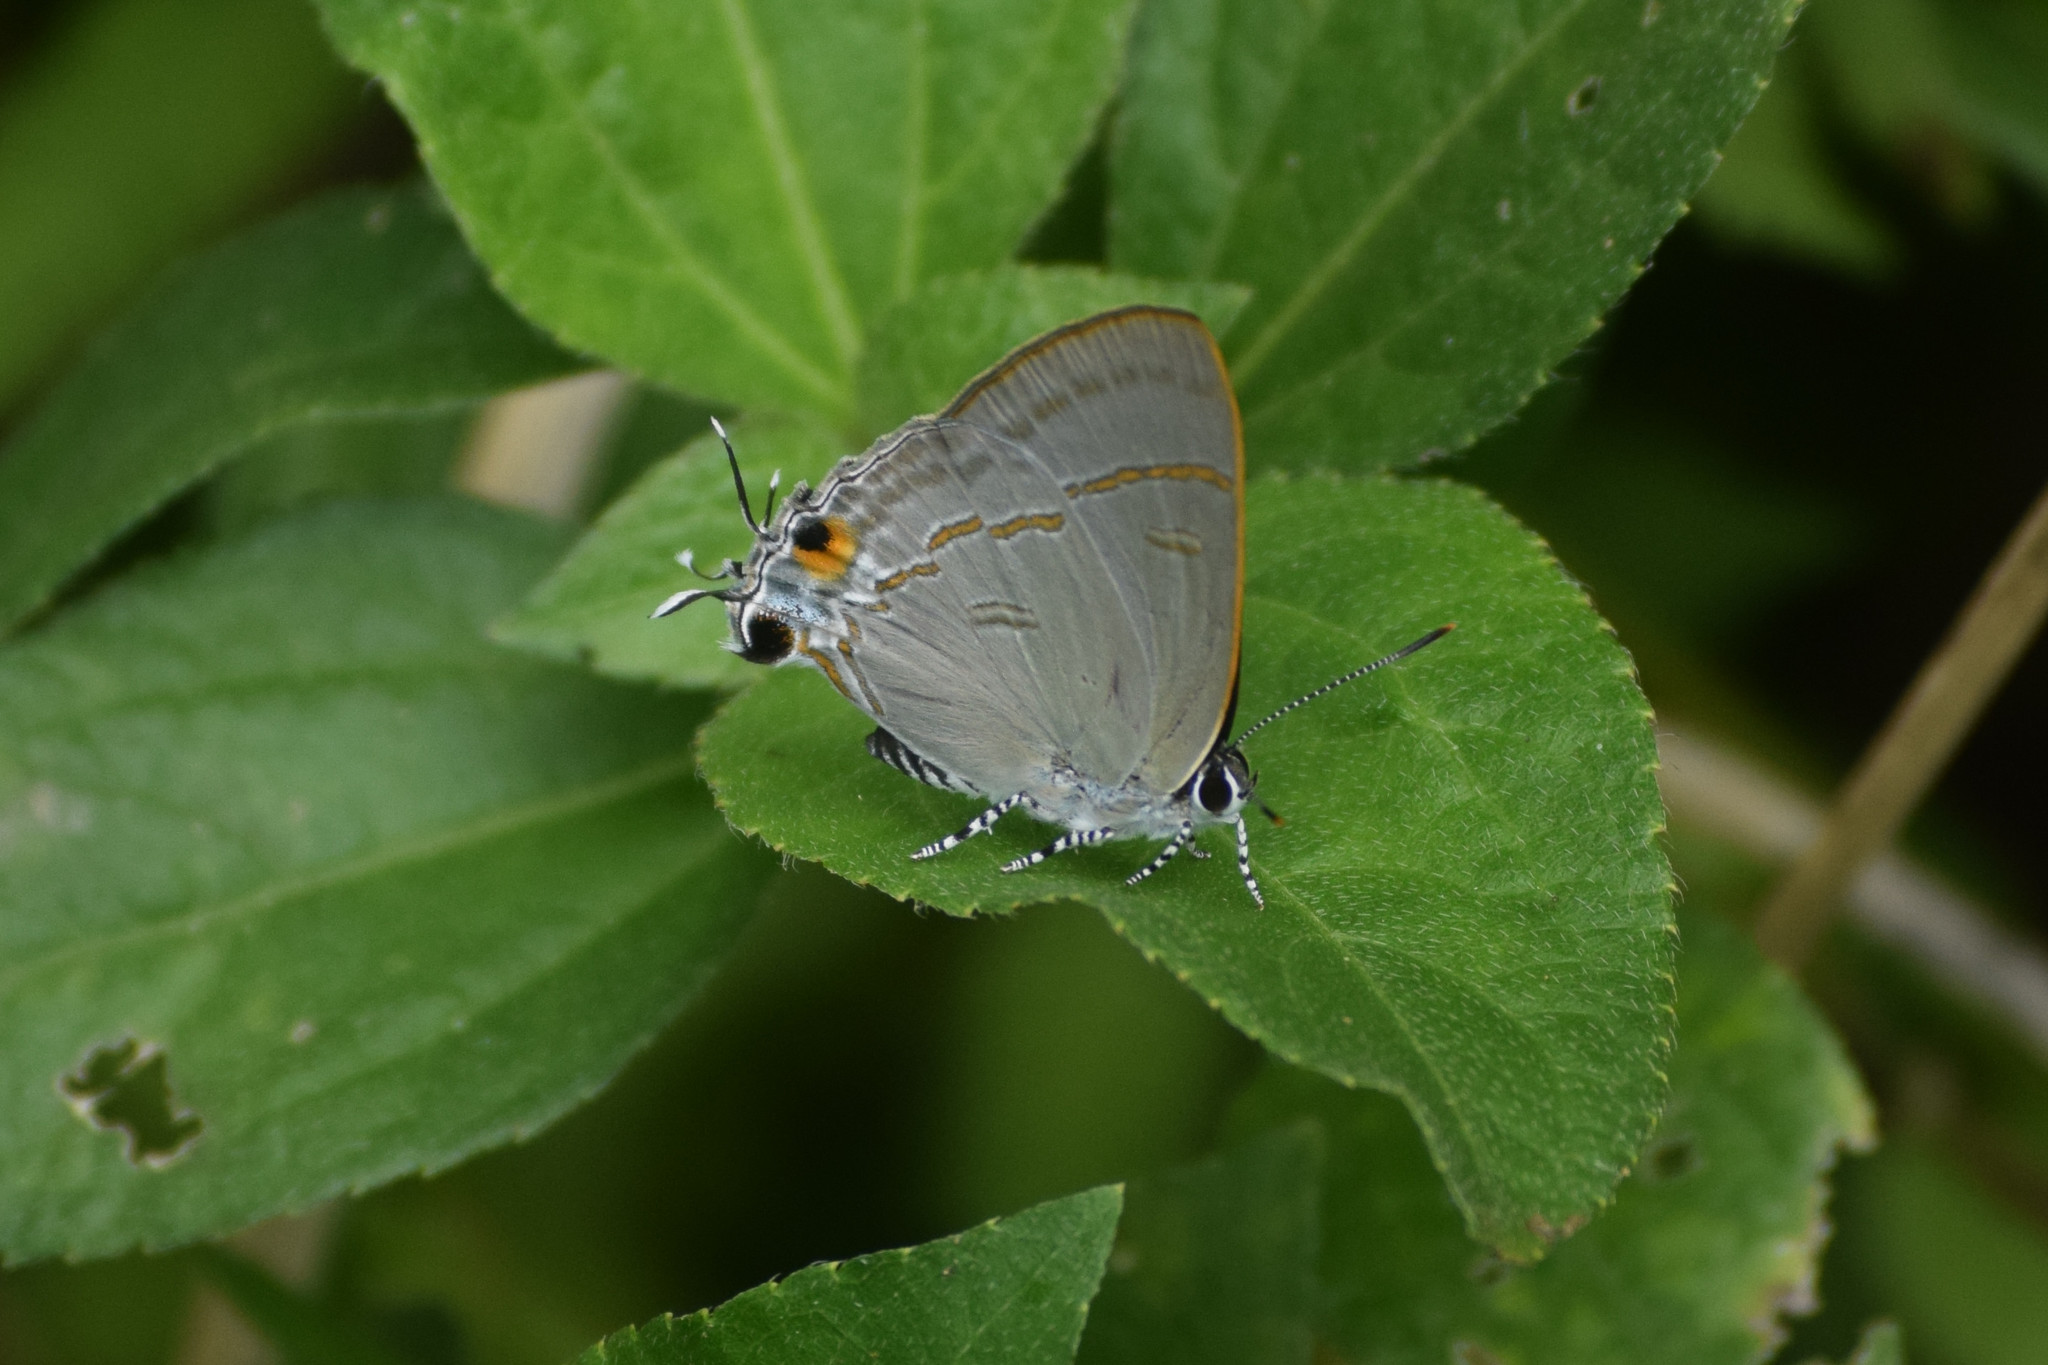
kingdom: Animalia
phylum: Arthropoda
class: Insecta
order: Lepidoptera
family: Lycaenidae
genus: Hypolycaena
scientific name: Hypolycaena erylus
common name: Common tit
